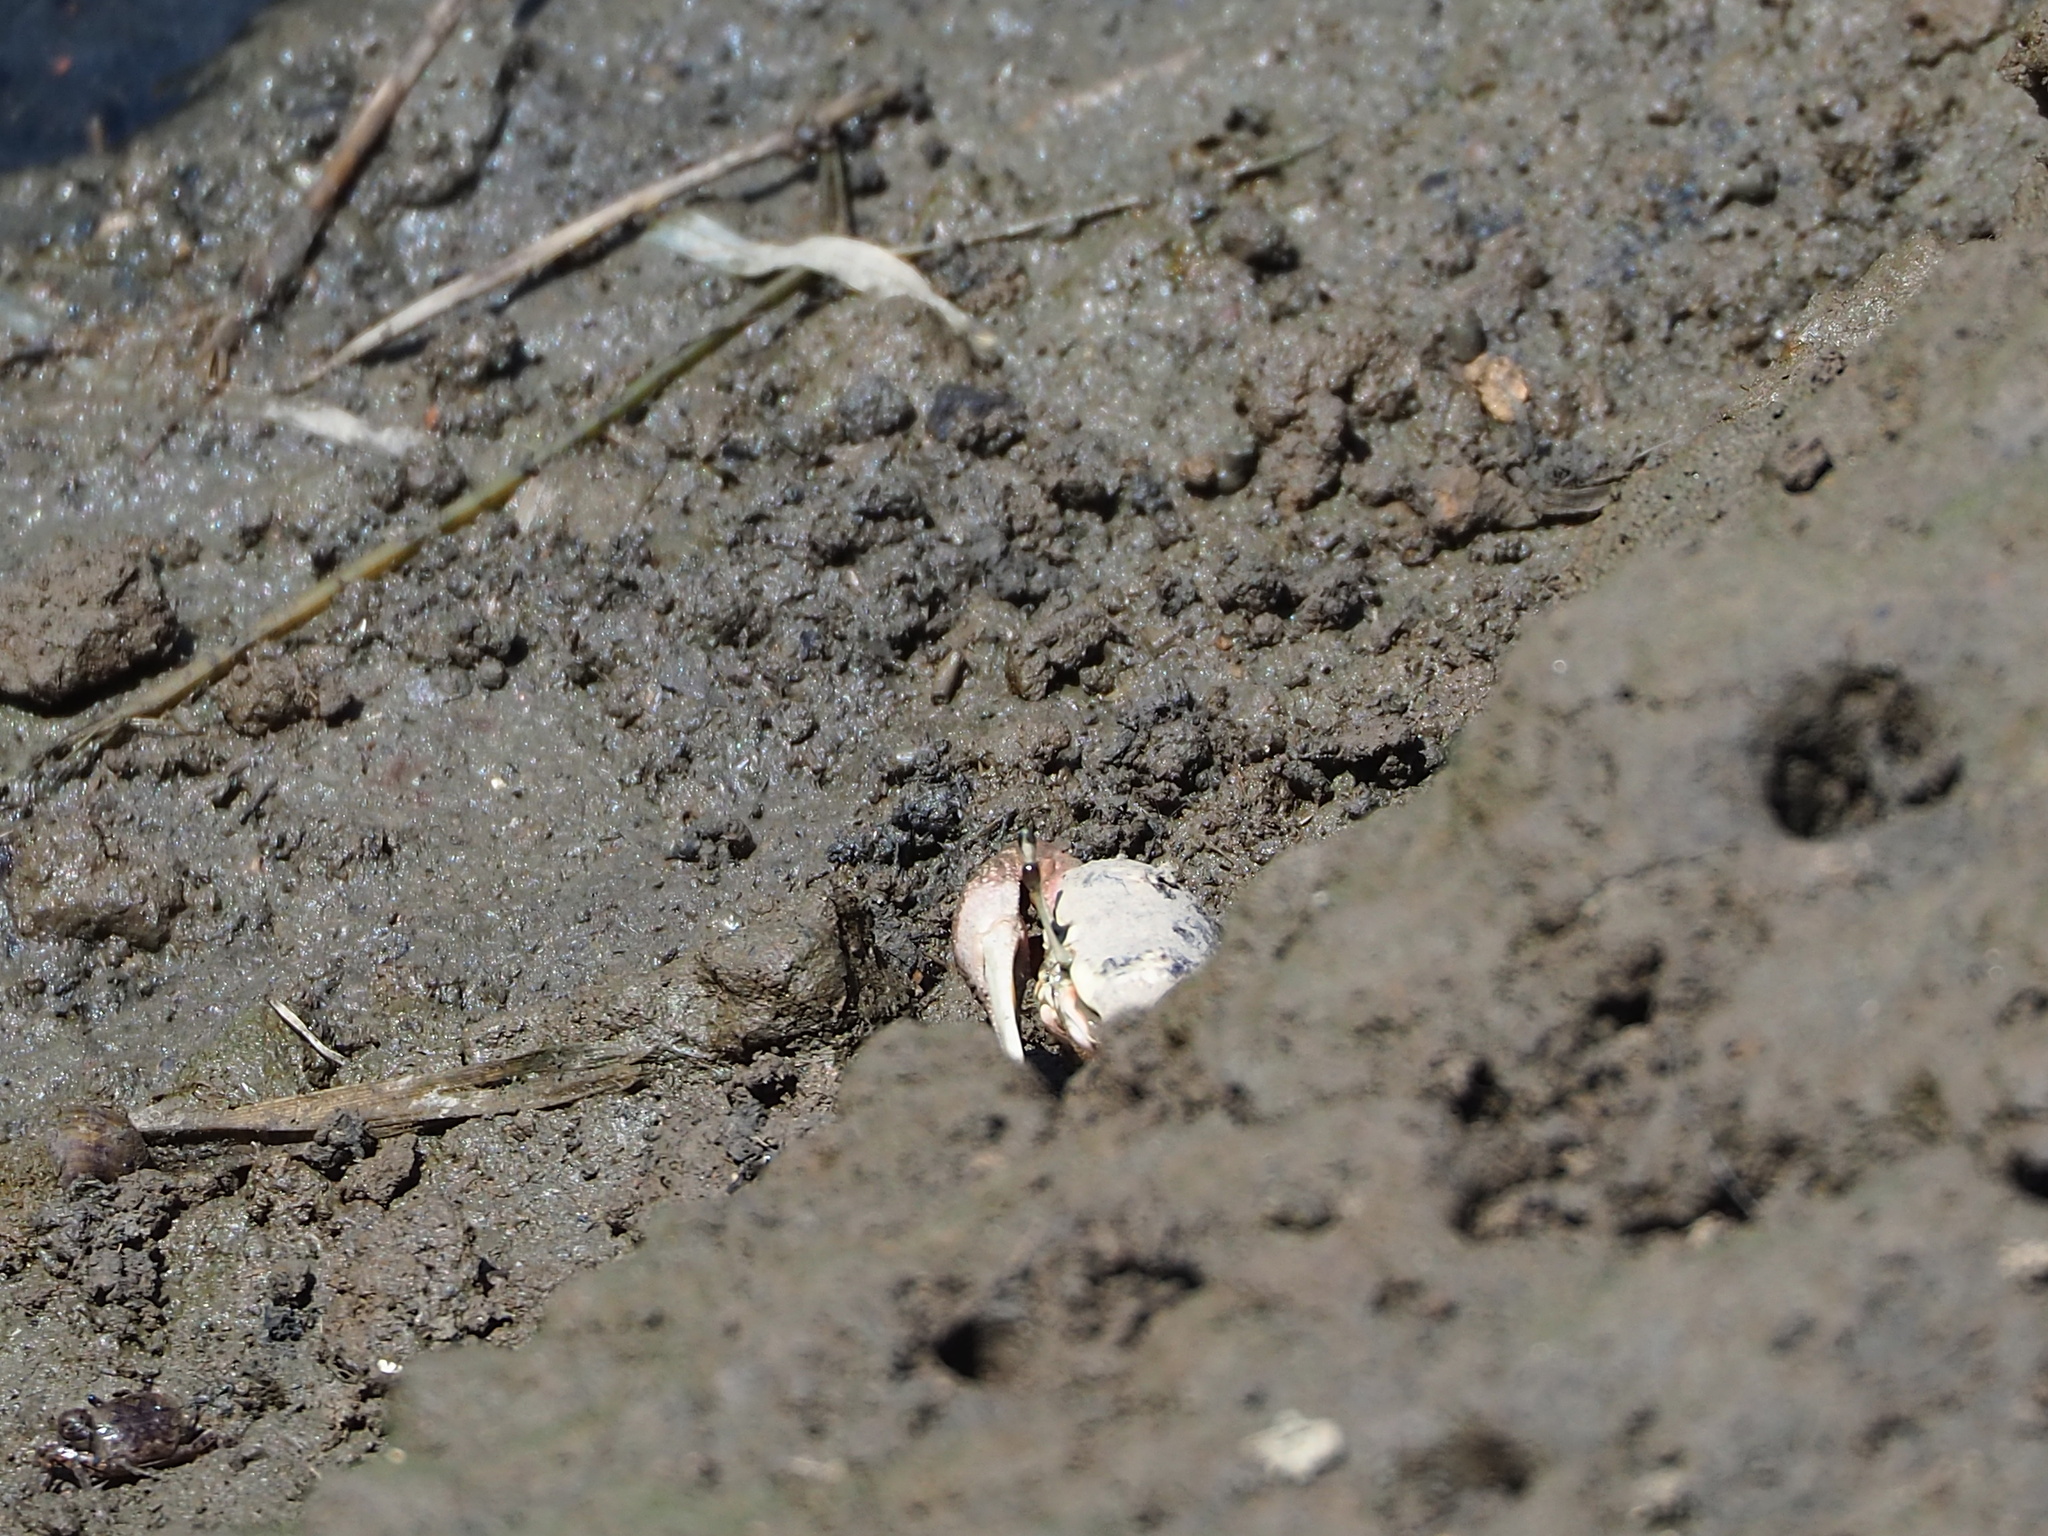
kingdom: Animalia
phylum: Arthropoda
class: Malacostraca
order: Decapoda
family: Ocypodidae
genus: Tubuca
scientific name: Tubuca arcuata
